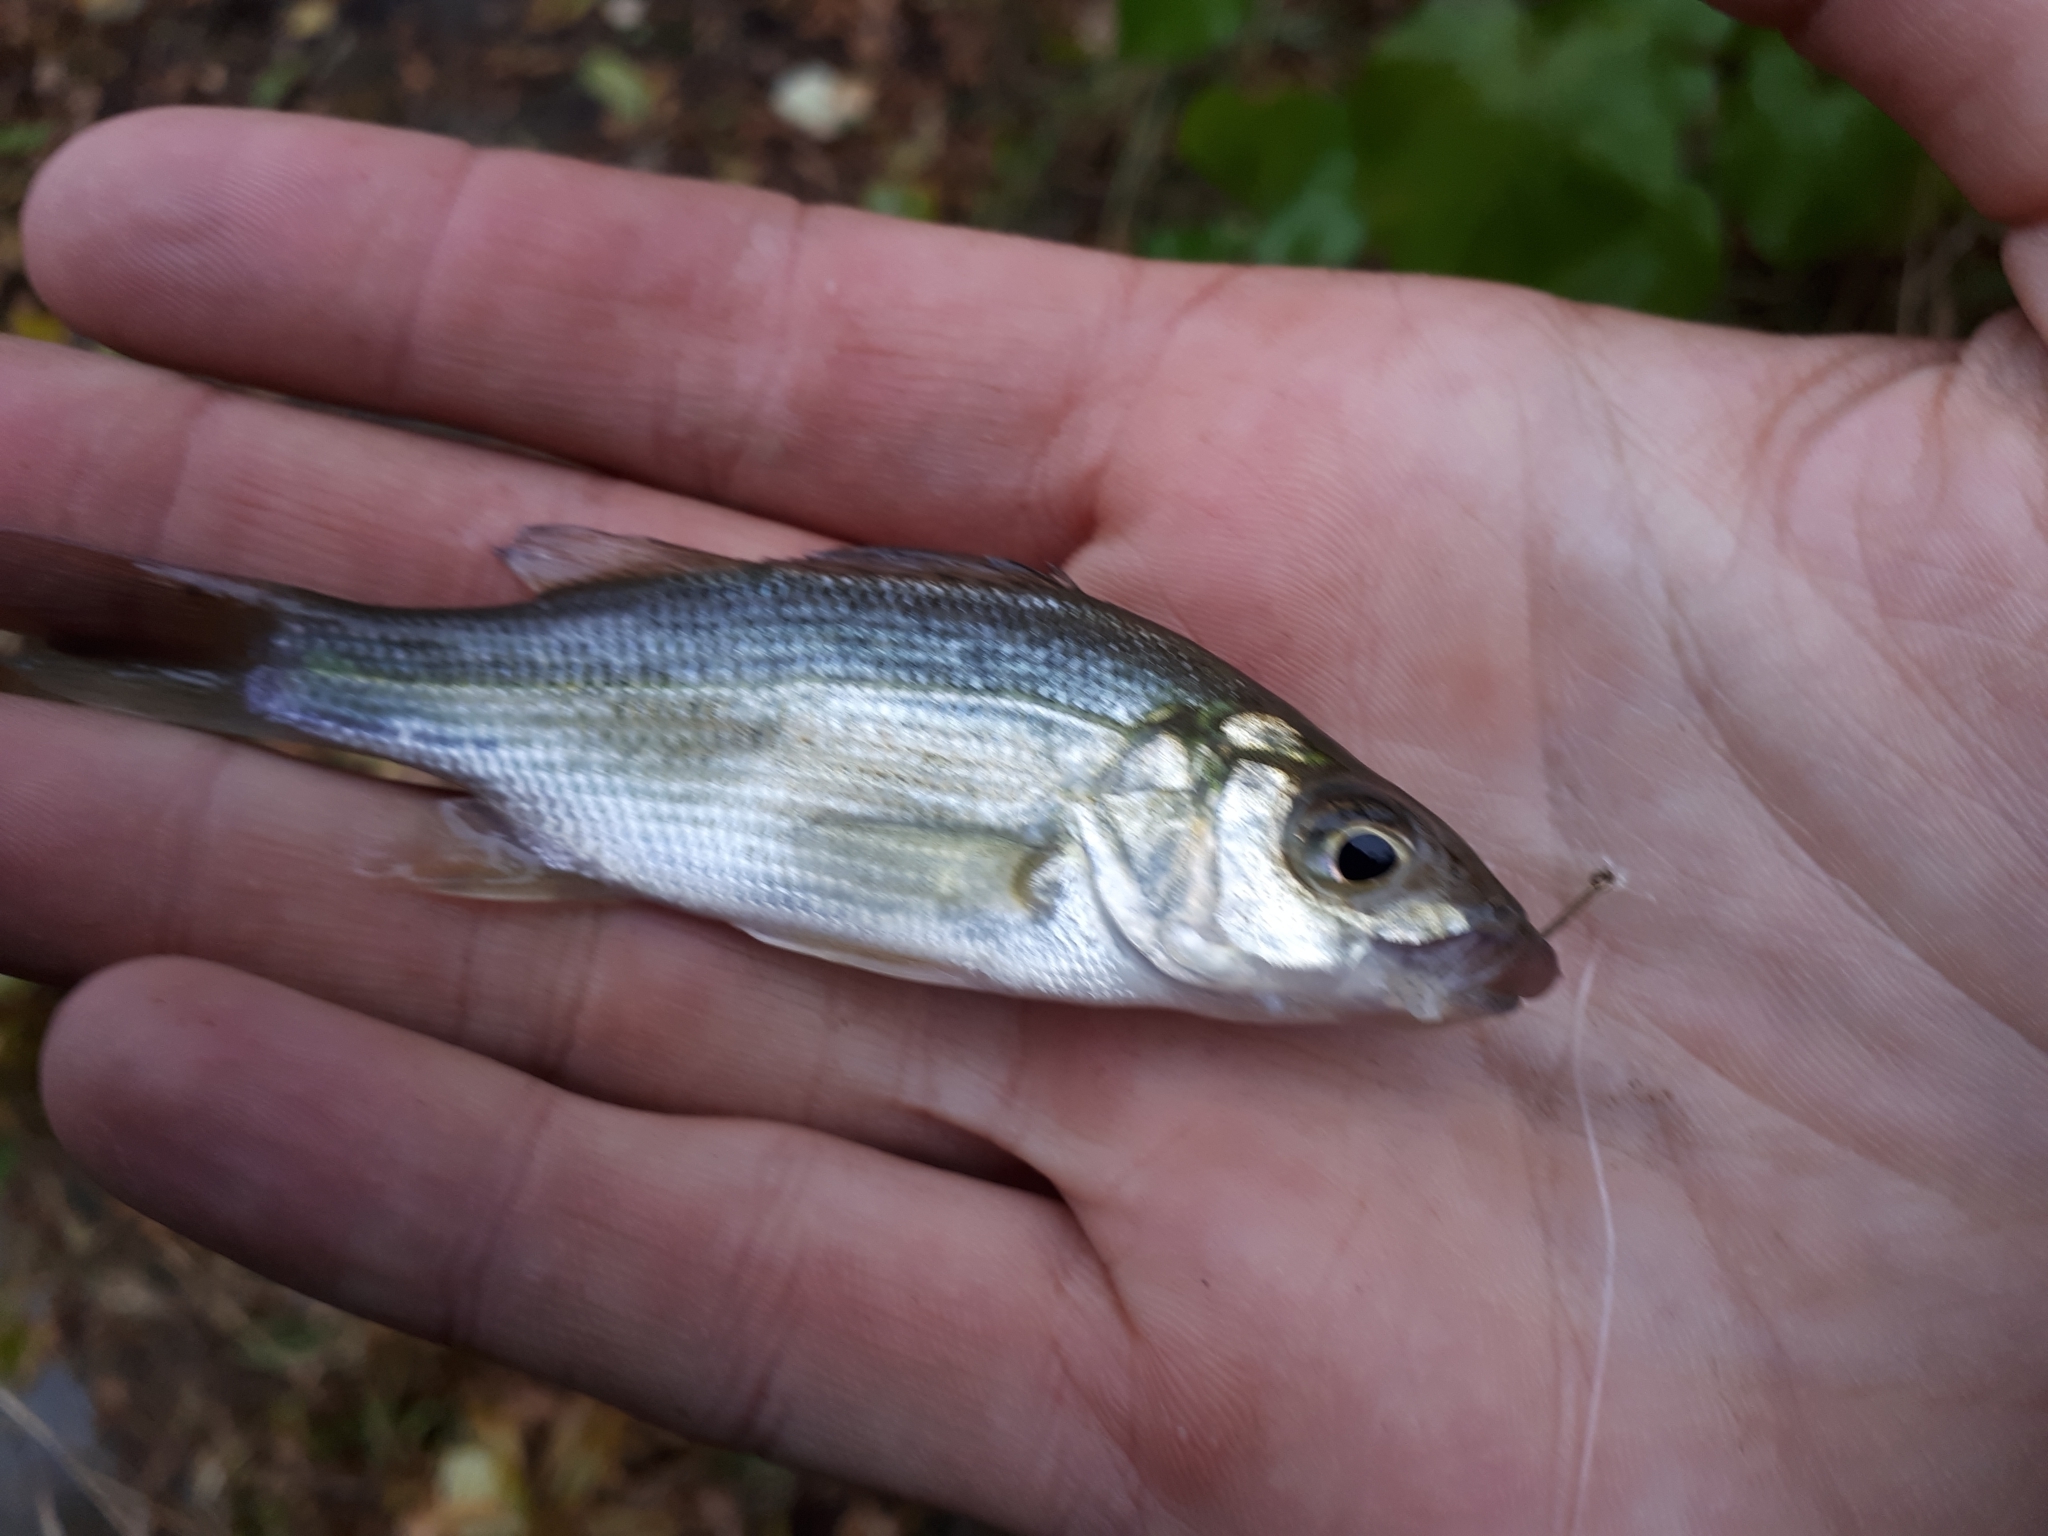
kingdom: Animalia
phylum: Chordata
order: Perciformes
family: Moronidae
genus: Morone
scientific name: Morone americana
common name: White perch
